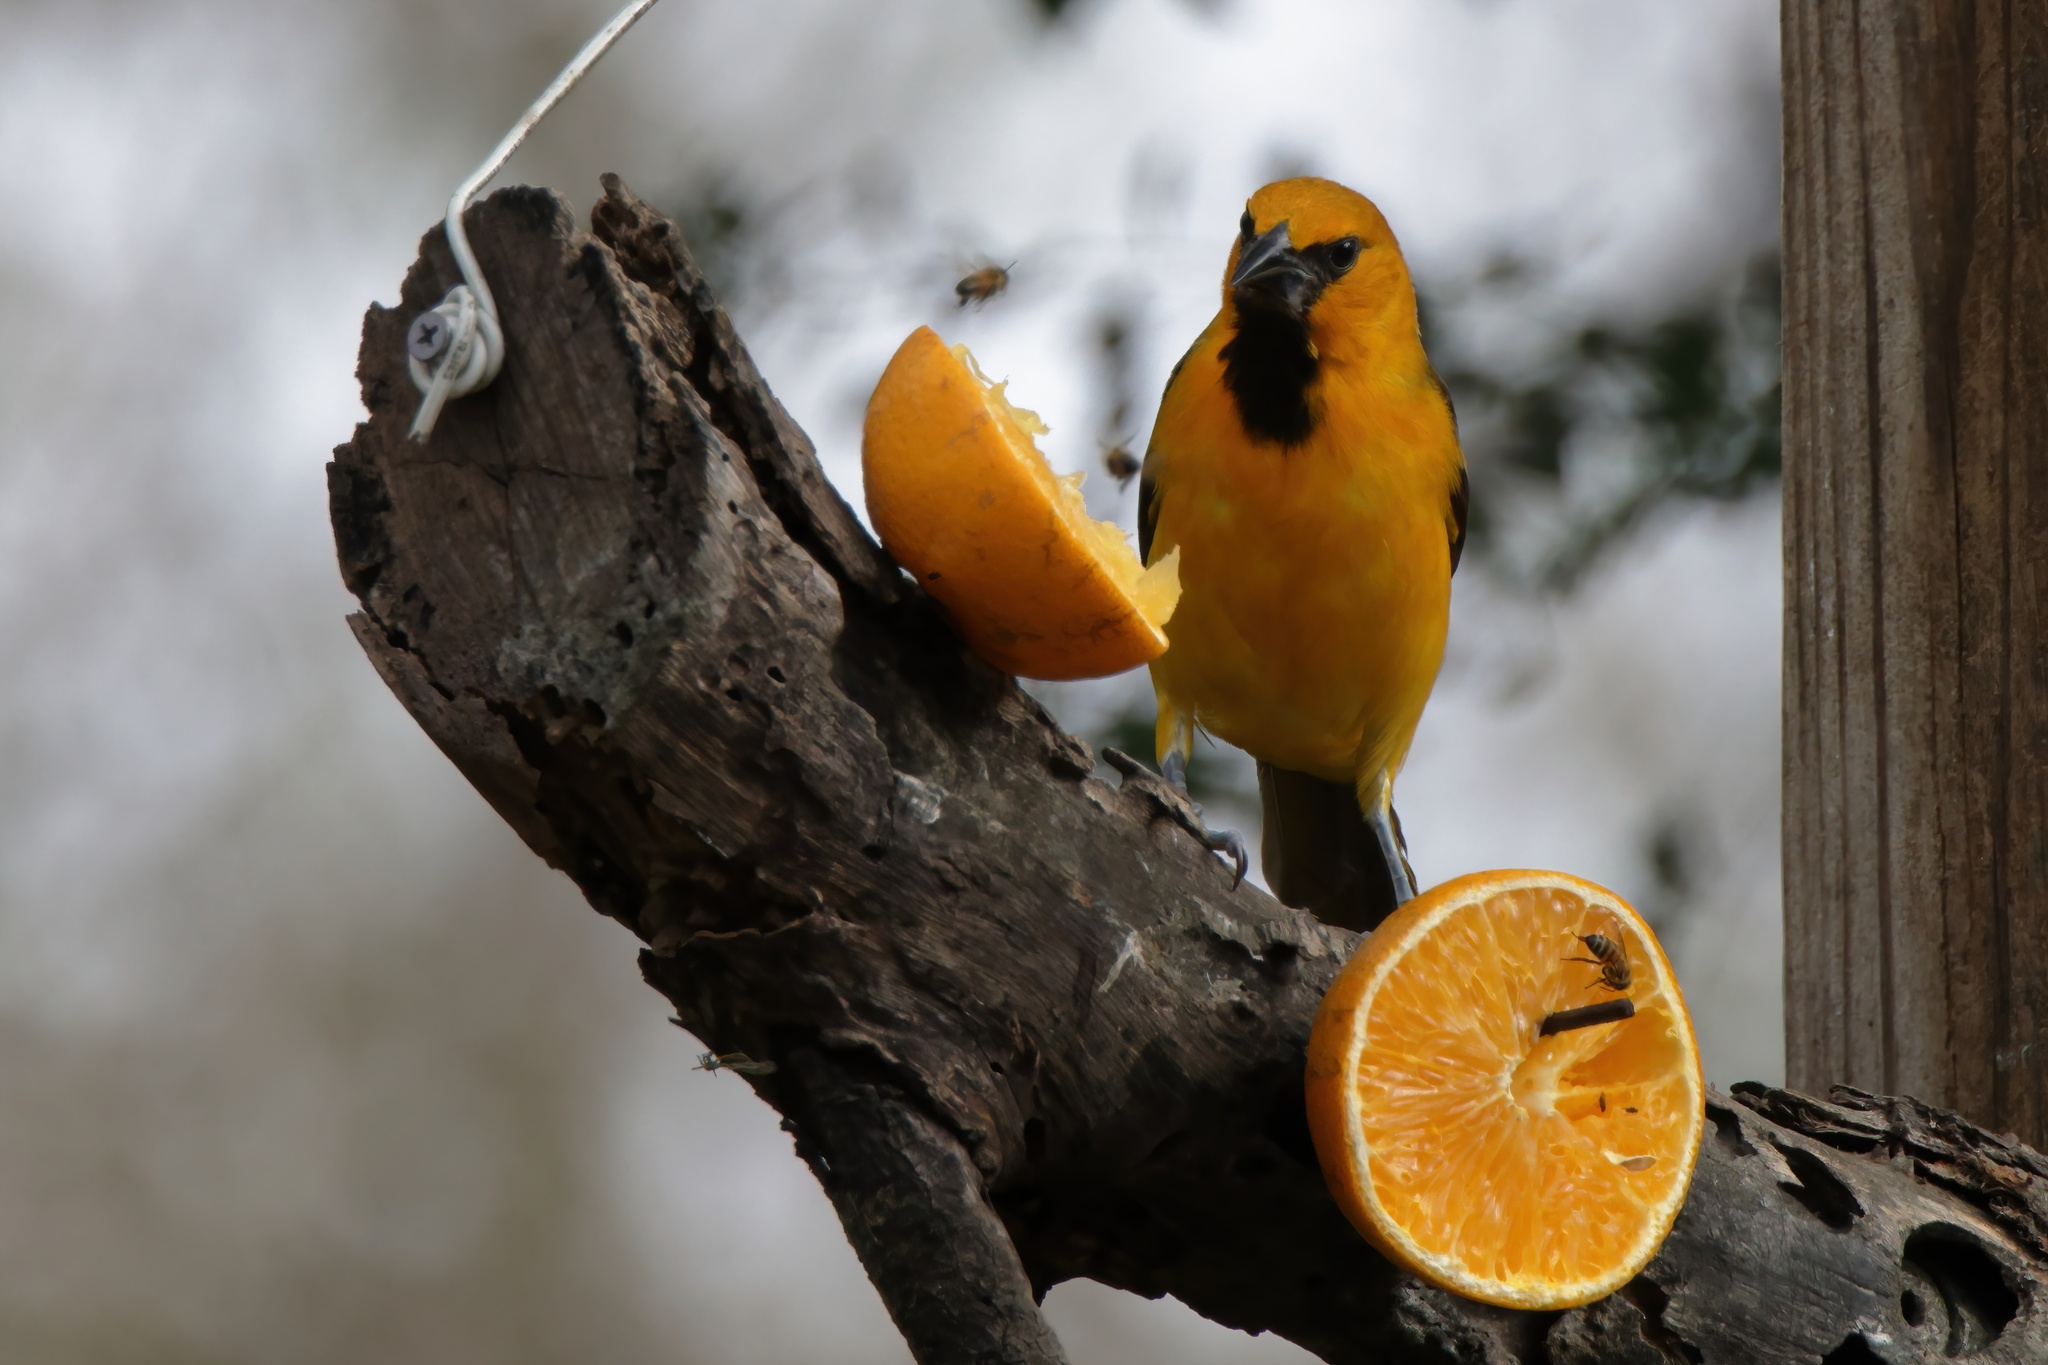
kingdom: Animalia
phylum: Chordata
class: Aves
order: Passeriformes
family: Icteridae
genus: Icterus
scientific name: Icterus gularis
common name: Altamira oriole
